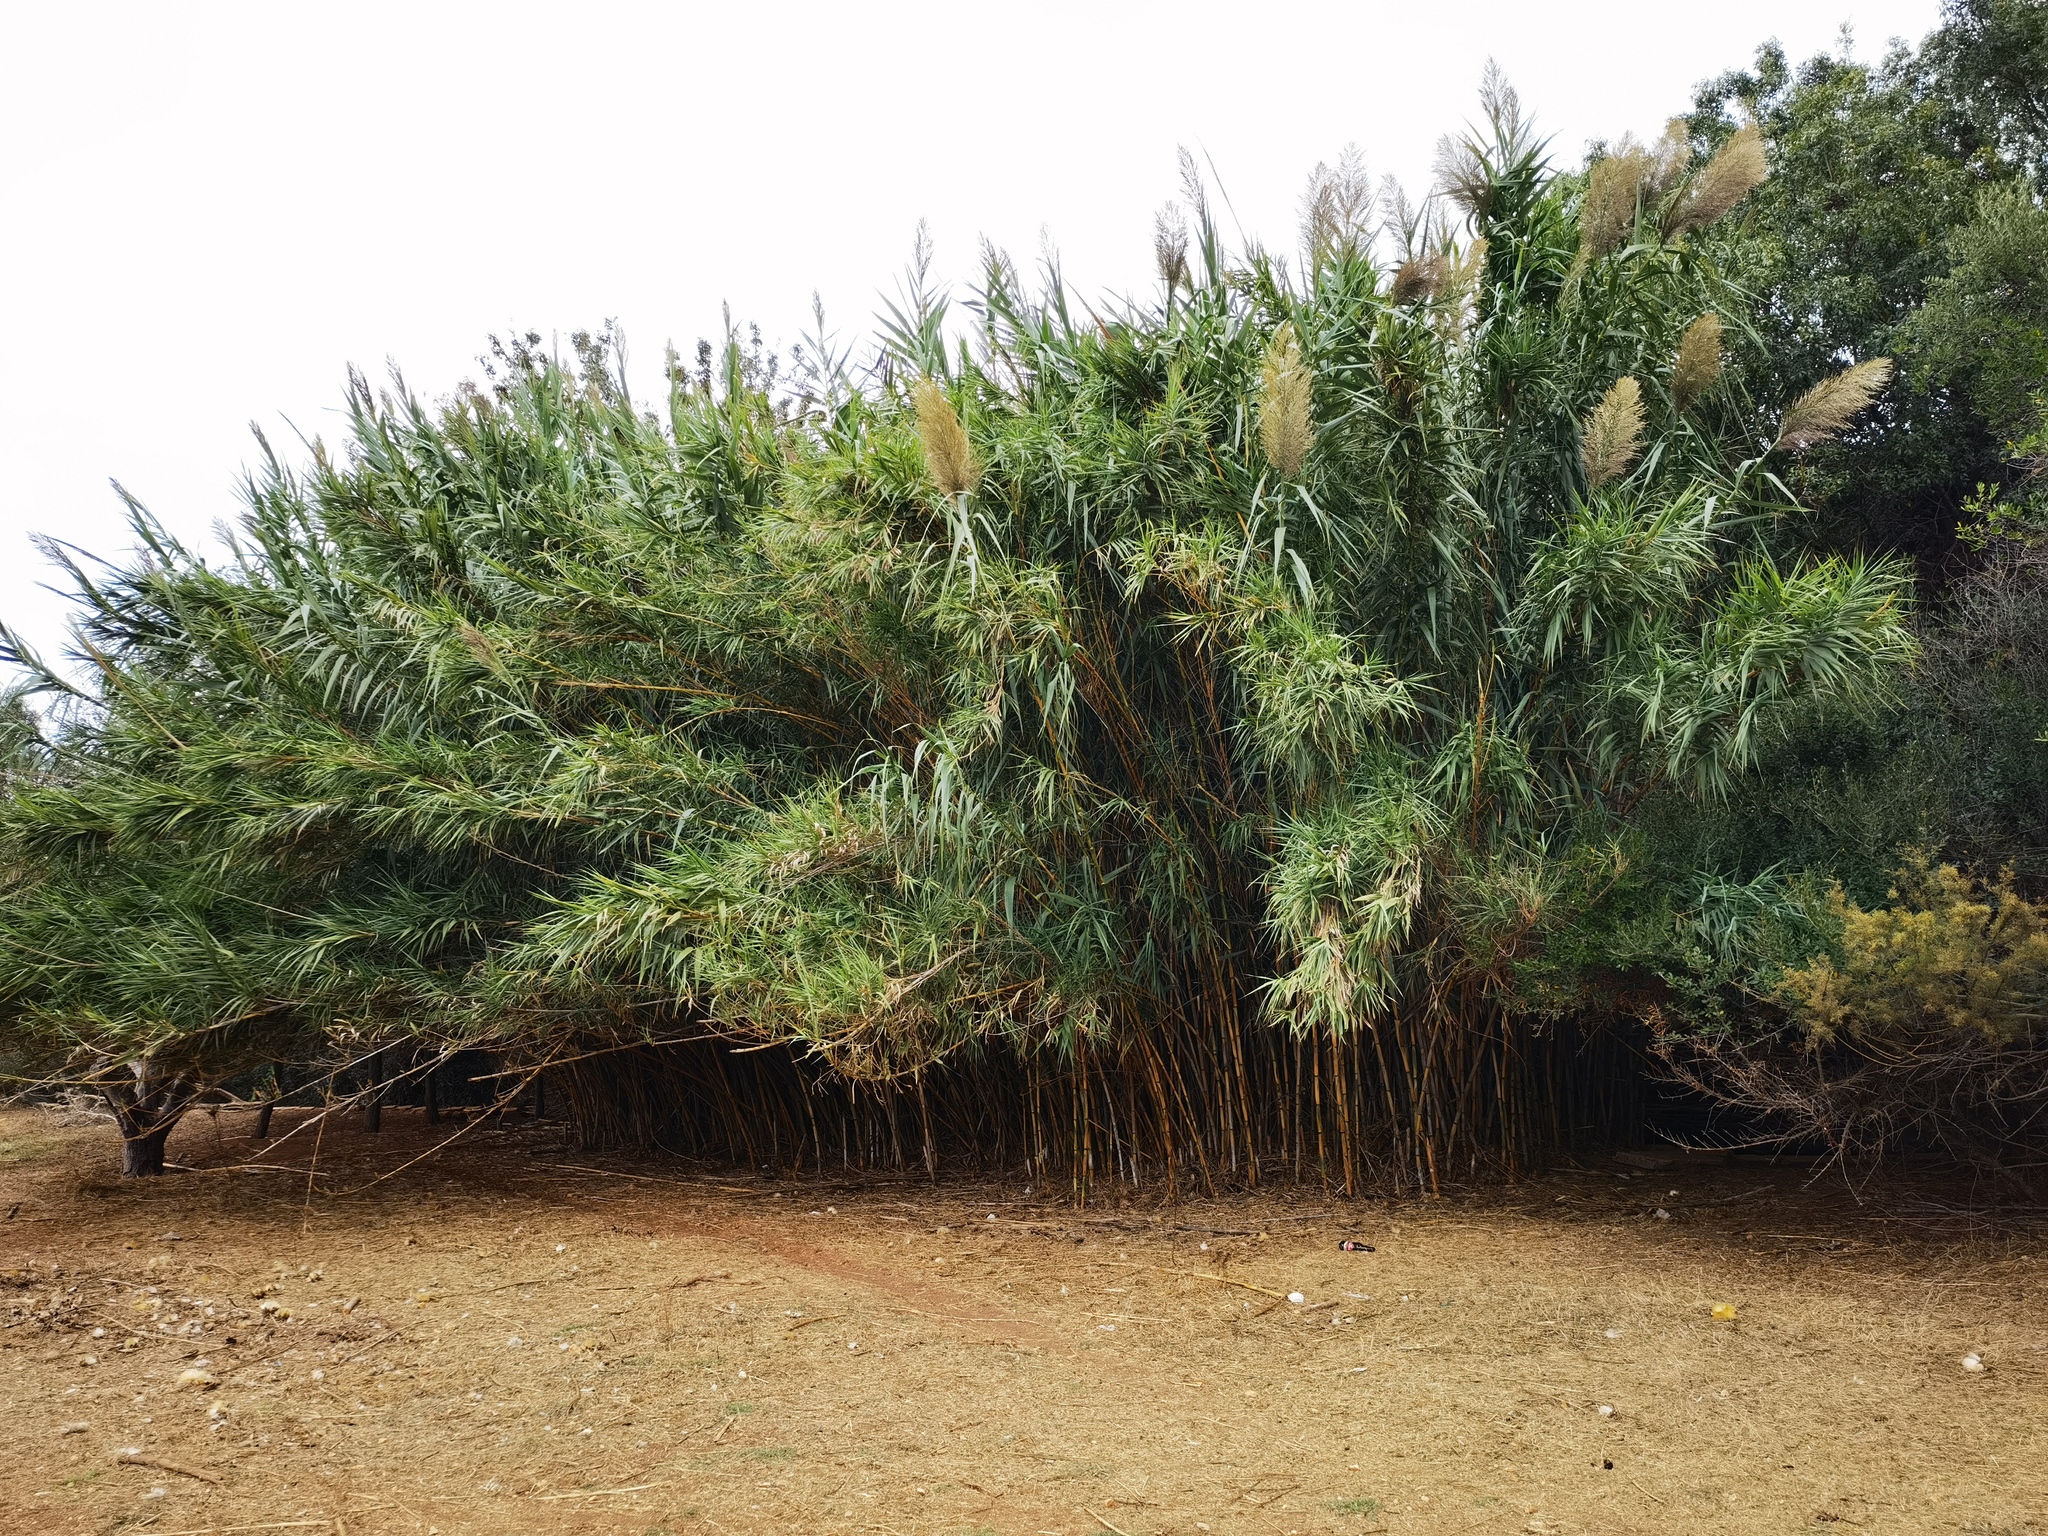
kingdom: Plantae
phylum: Tracheophyta
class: Liliopsida
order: Poales
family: Poaceae
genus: Arundo
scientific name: Arundo donax
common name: Giant reed
